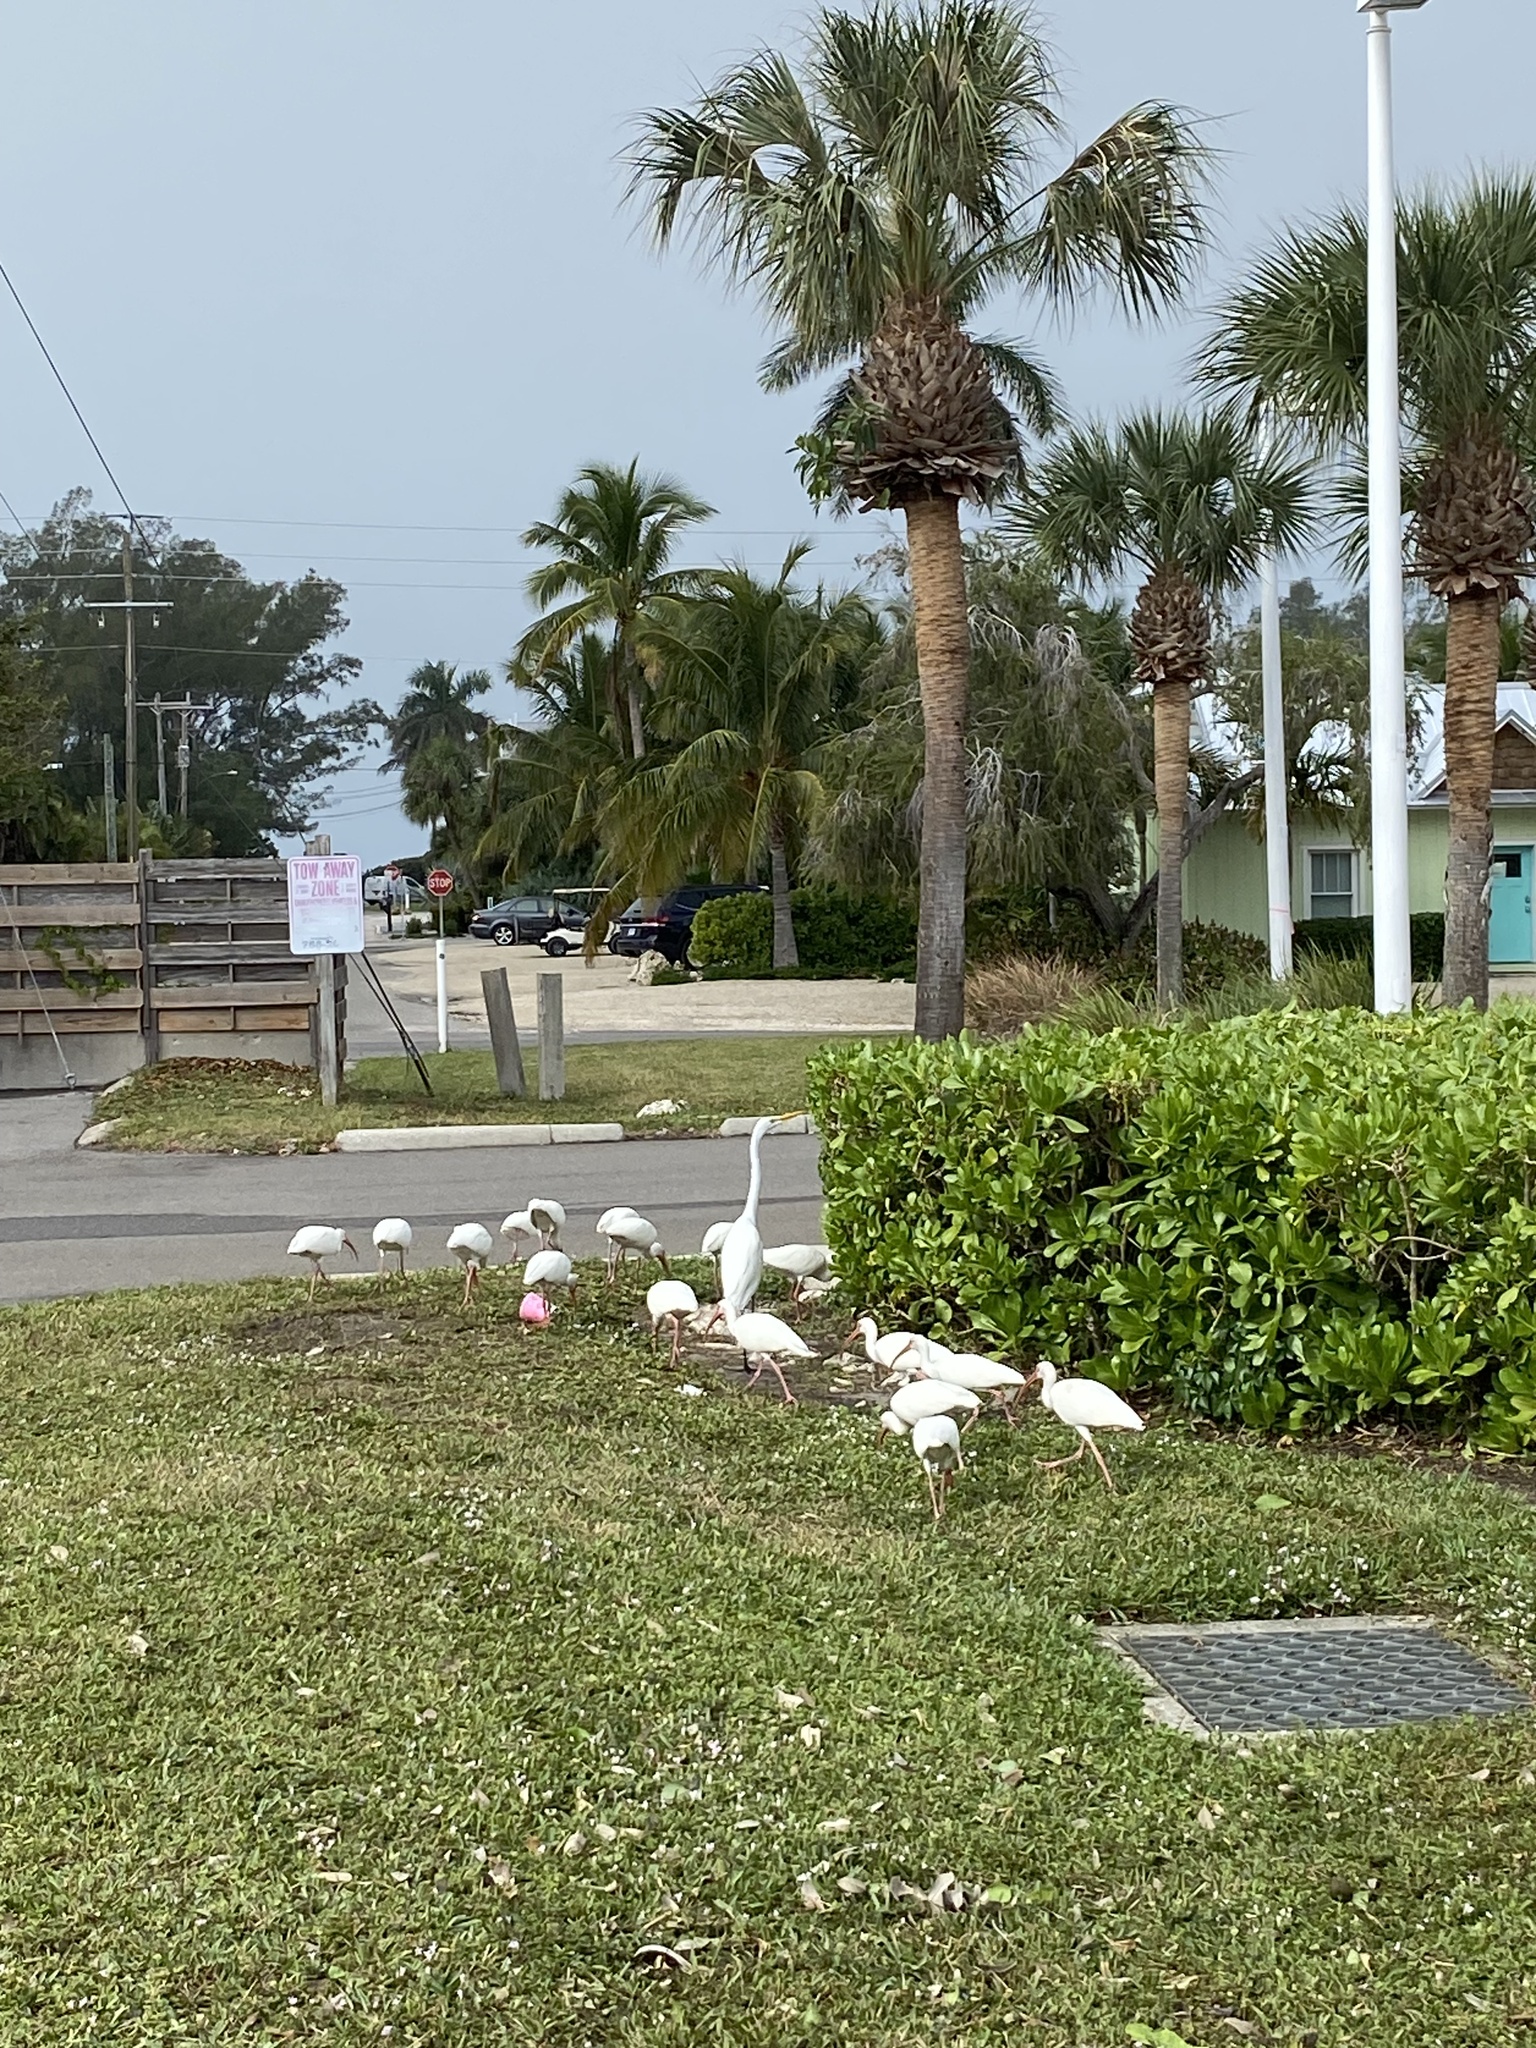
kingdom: Animalia
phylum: Chordata
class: Aves
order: Pelecaniformes
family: Ardeidae
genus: Ardea
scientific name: Ardea alba
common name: Great egret
